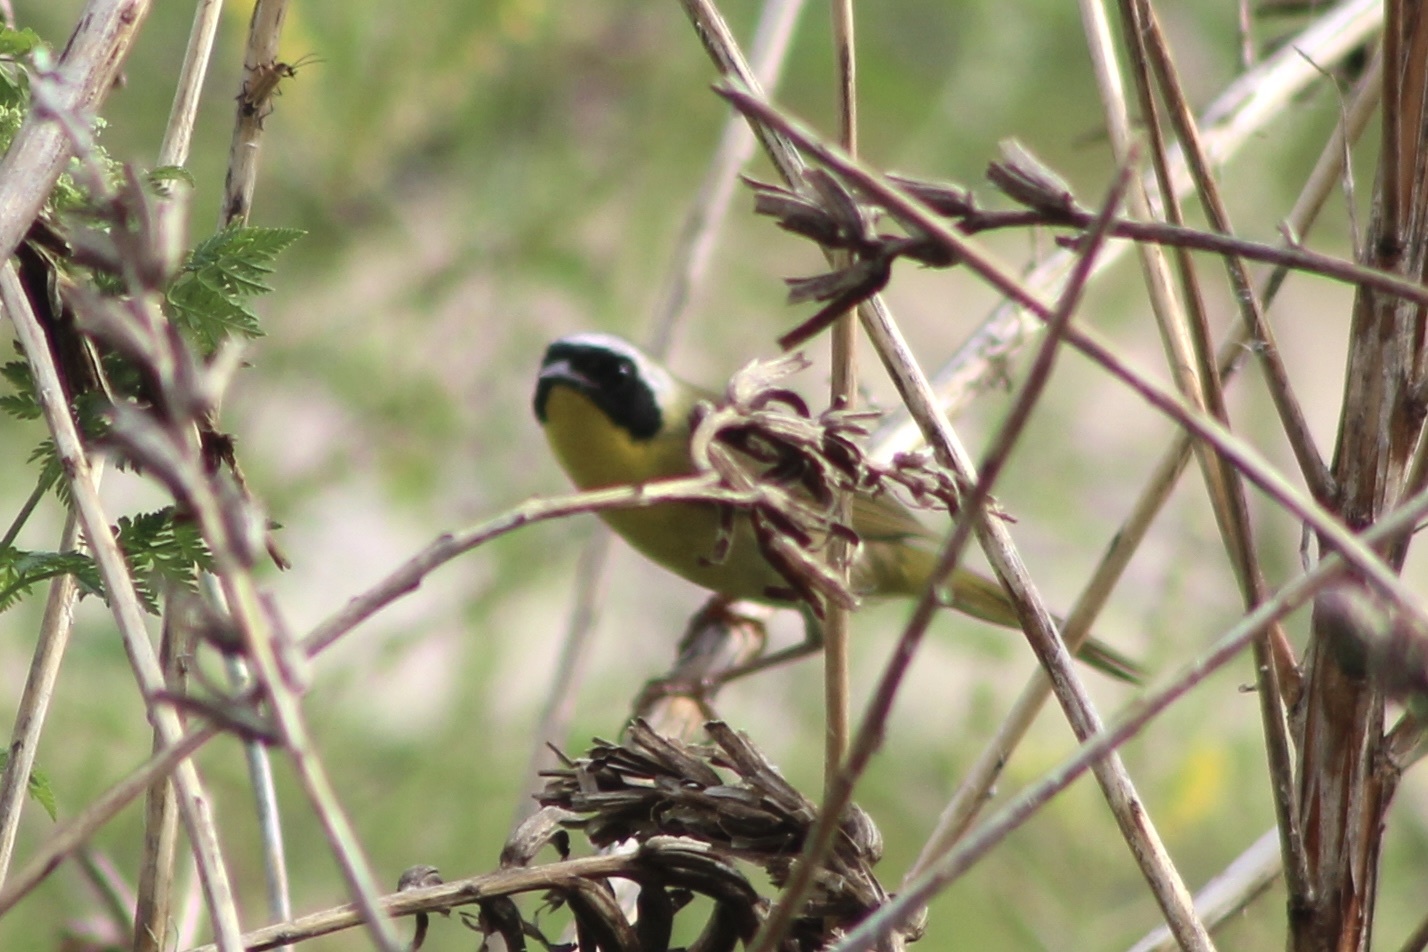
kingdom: Animalia
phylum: Chordata
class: Aves
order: Passeriformes
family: Parulidae
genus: Geothlypis
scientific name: Geothlypis trichas
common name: Common yellowthroat
